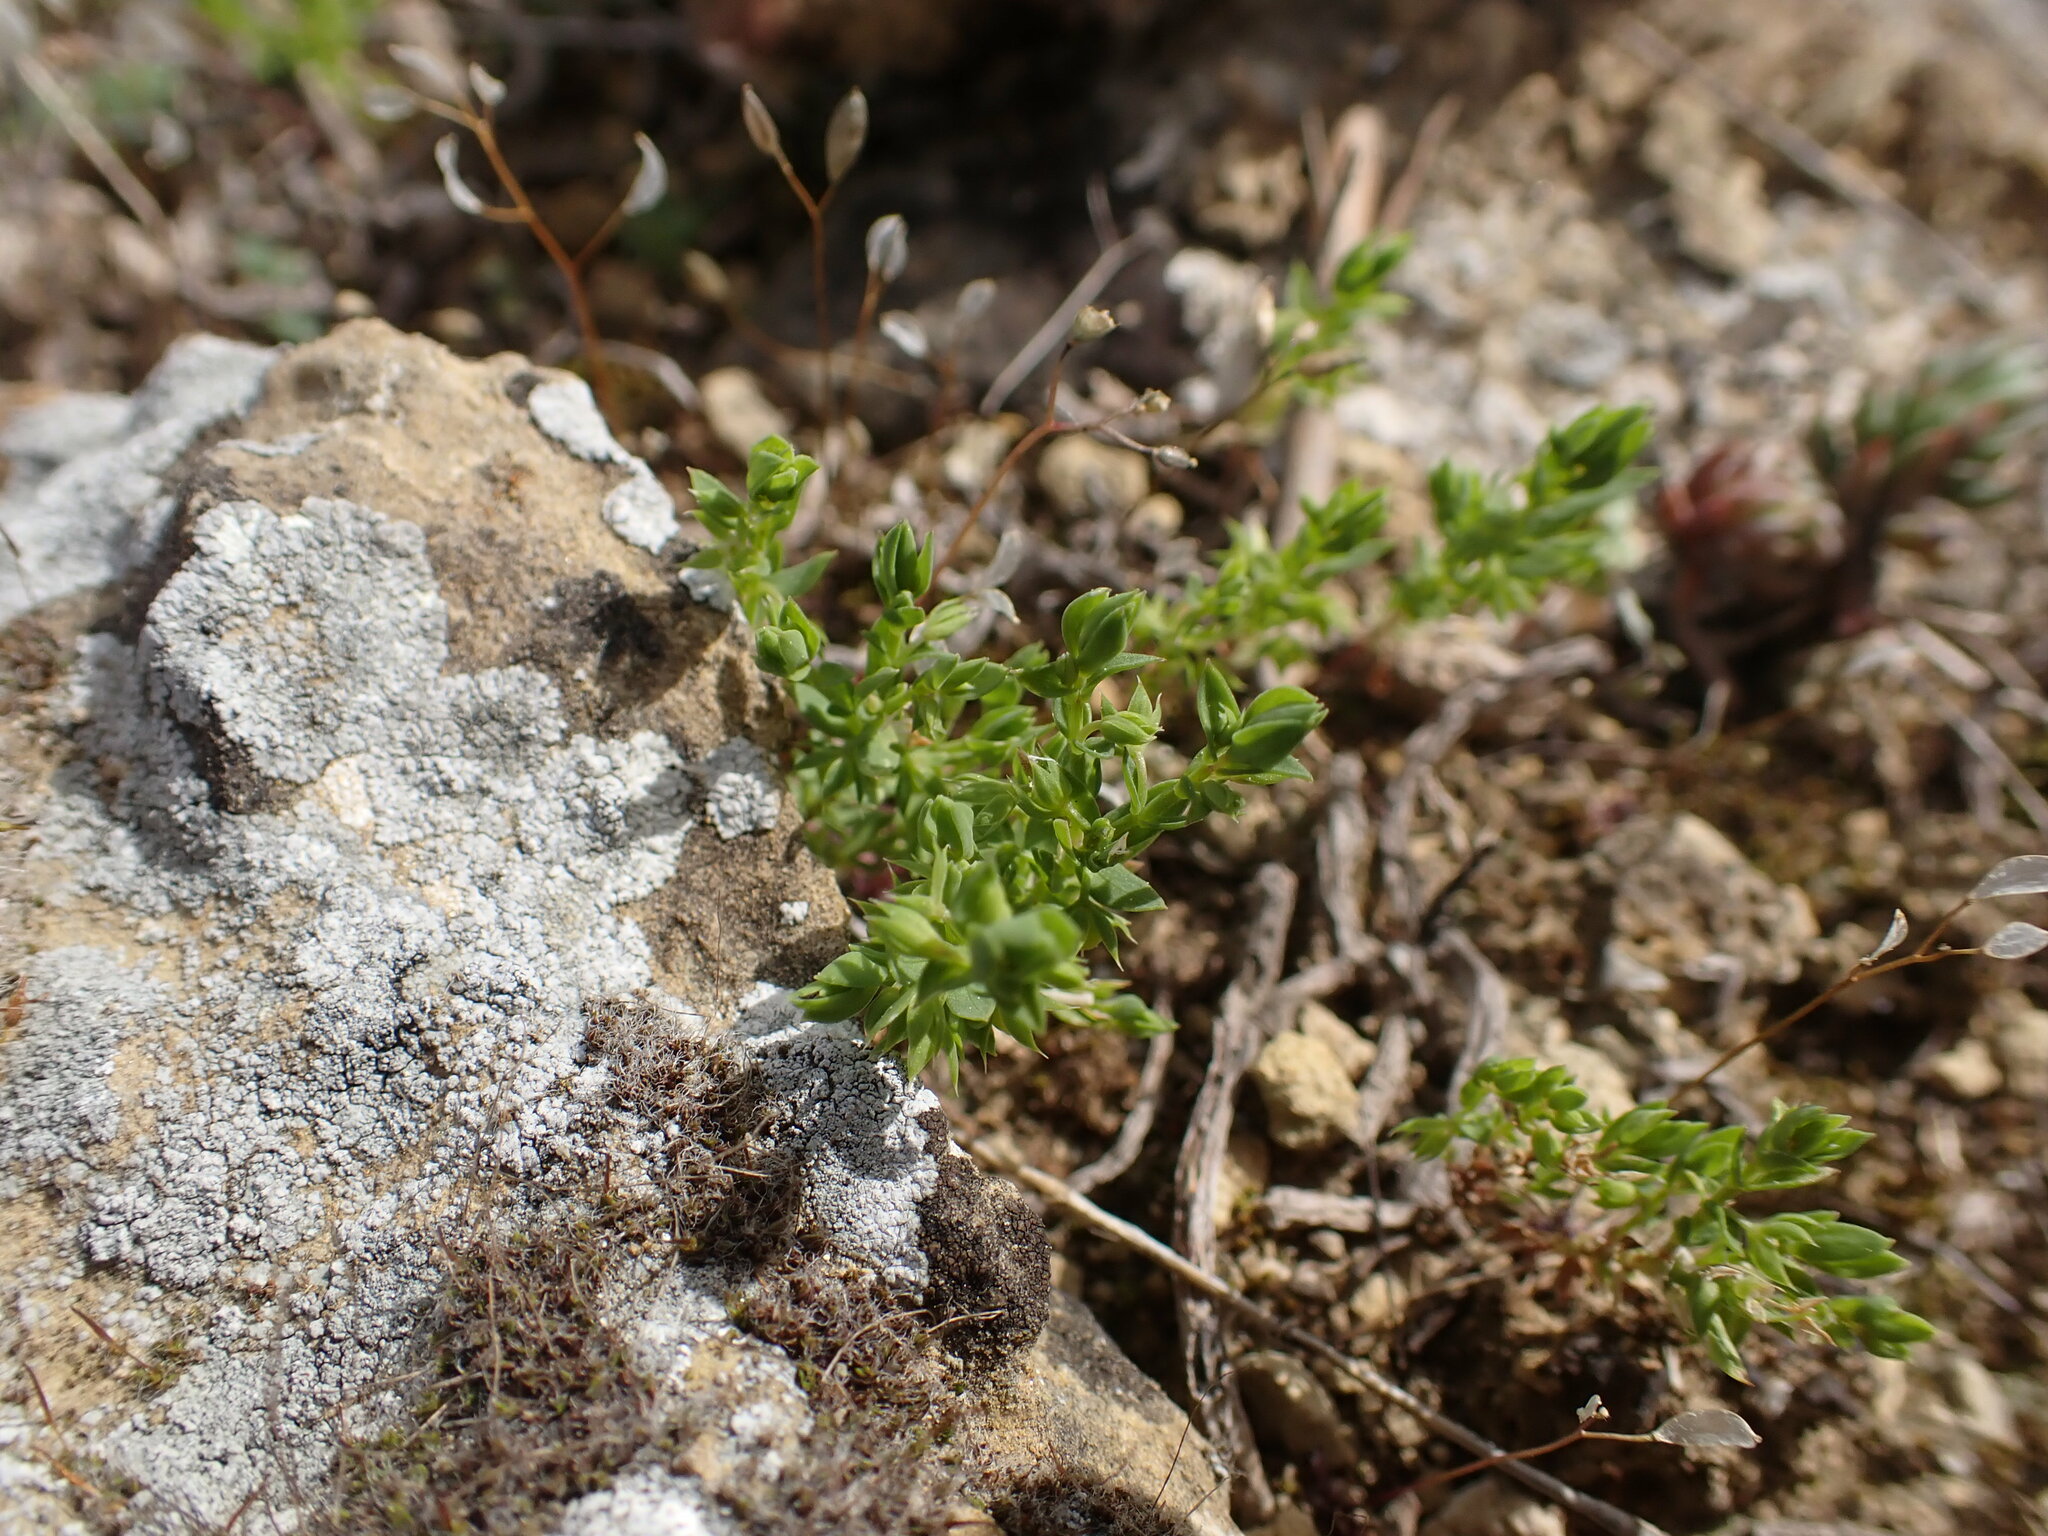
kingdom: Plantae
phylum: Tracheophyta
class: Magnoliopsida
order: Ericales
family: Primulaceae
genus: Lysimachia
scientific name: Lysimachia linum-stellatum
